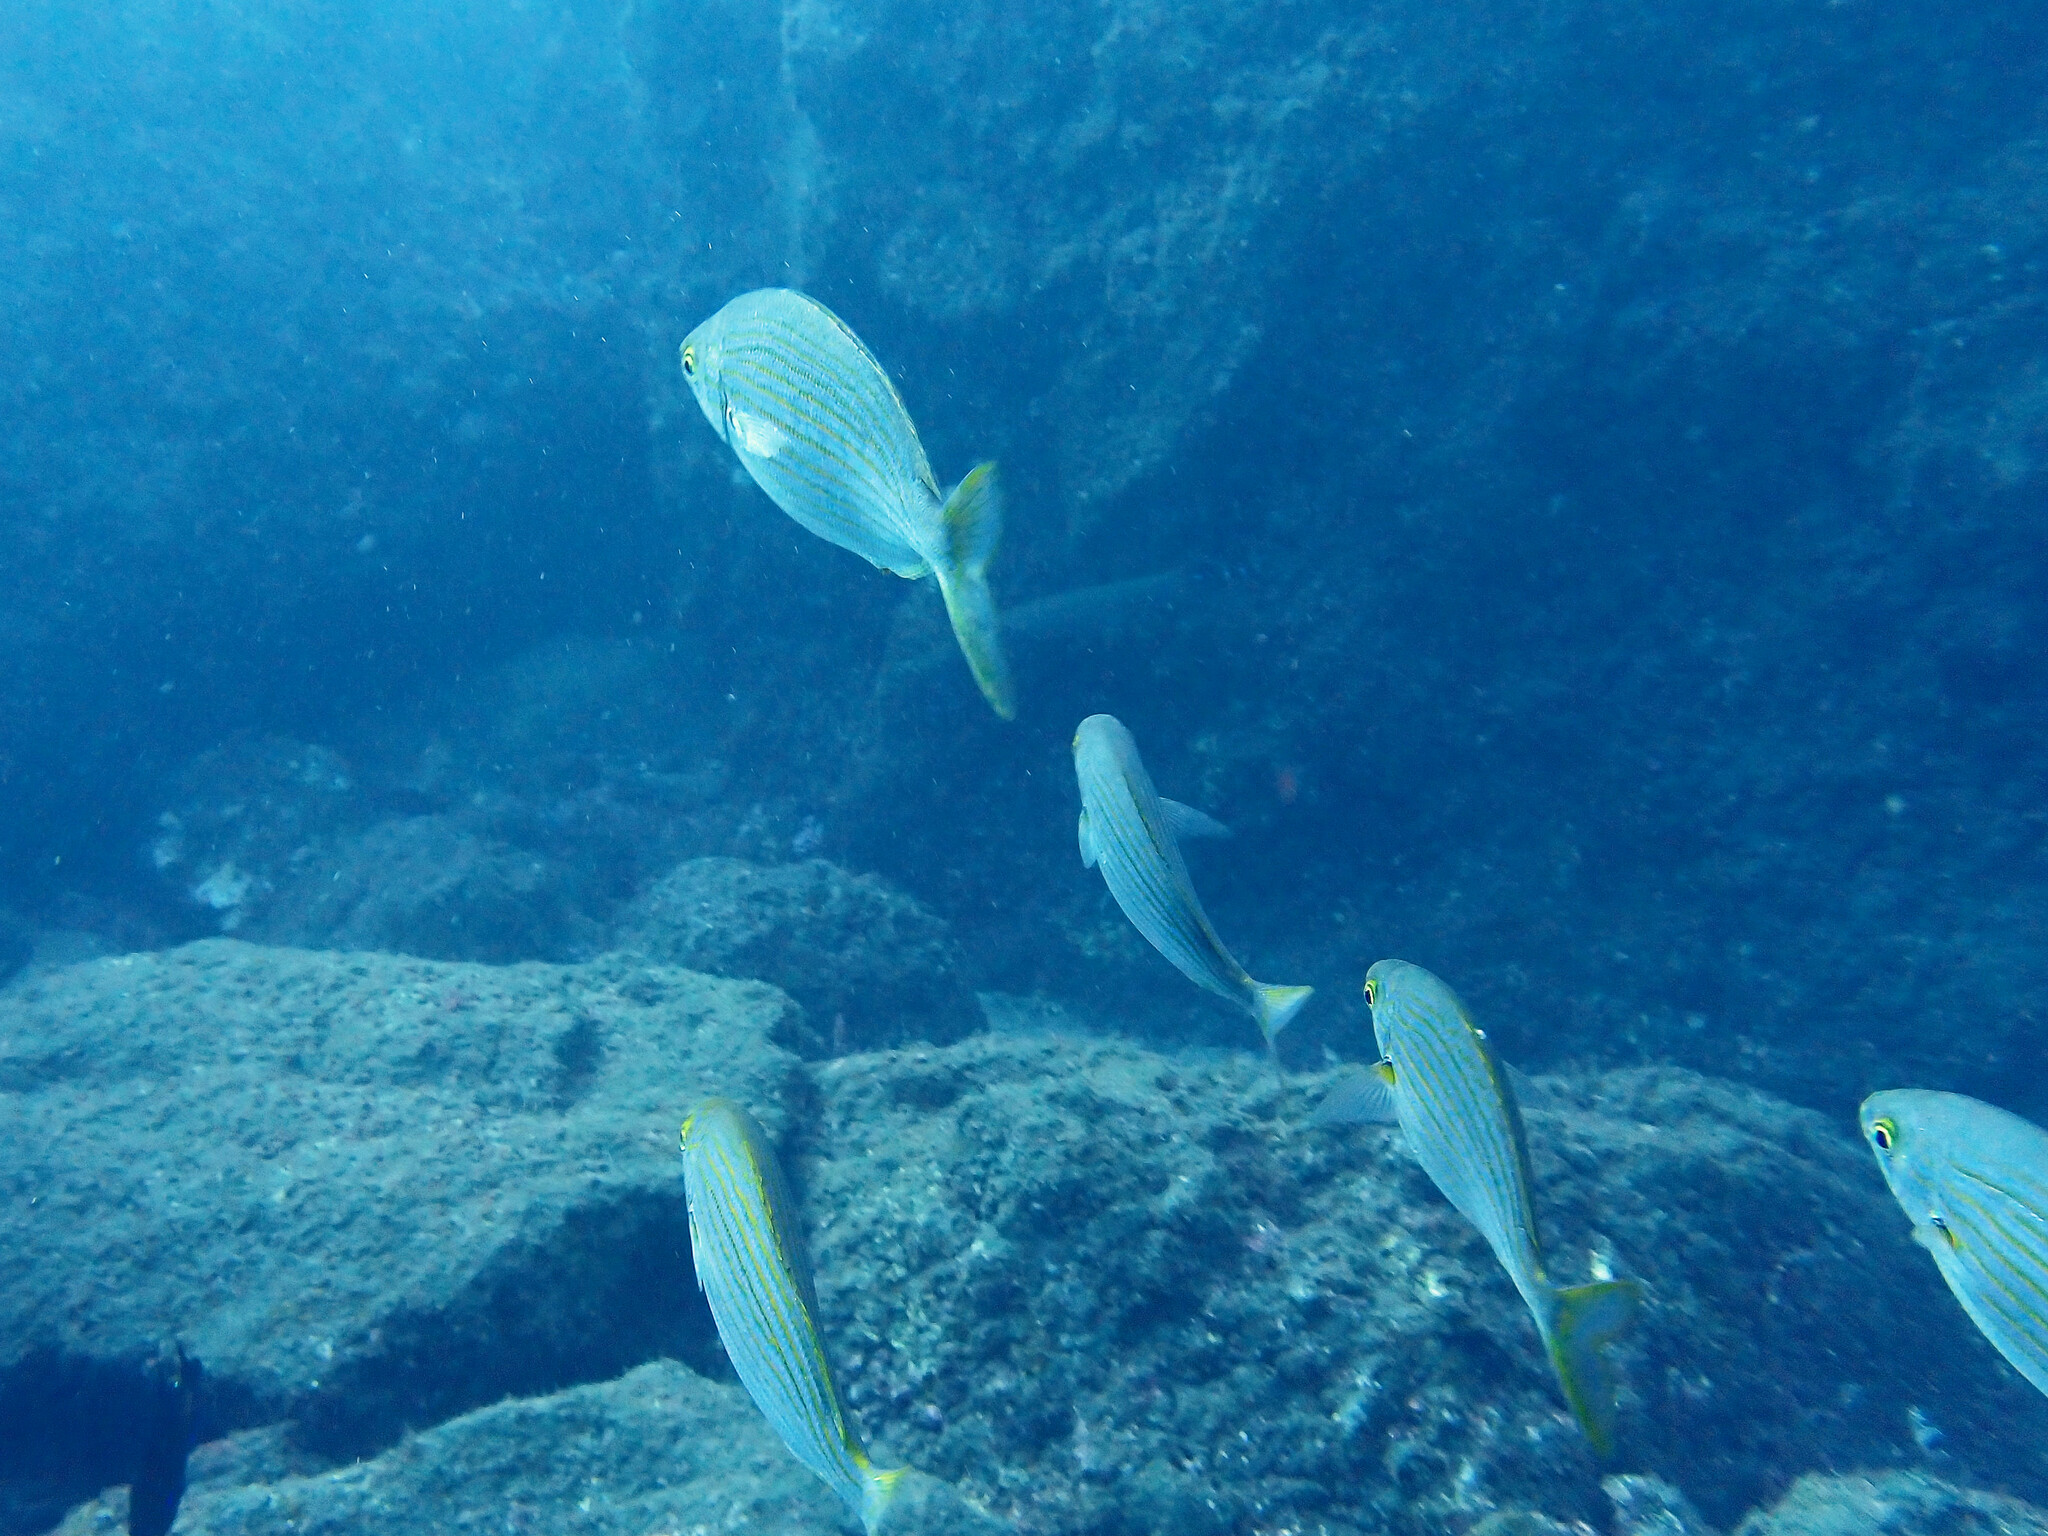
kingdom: Animalia
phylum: Chordata
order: Perciformes
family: Sparidae
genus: Sarpa
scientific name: Sarpa salpa
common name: Salema
